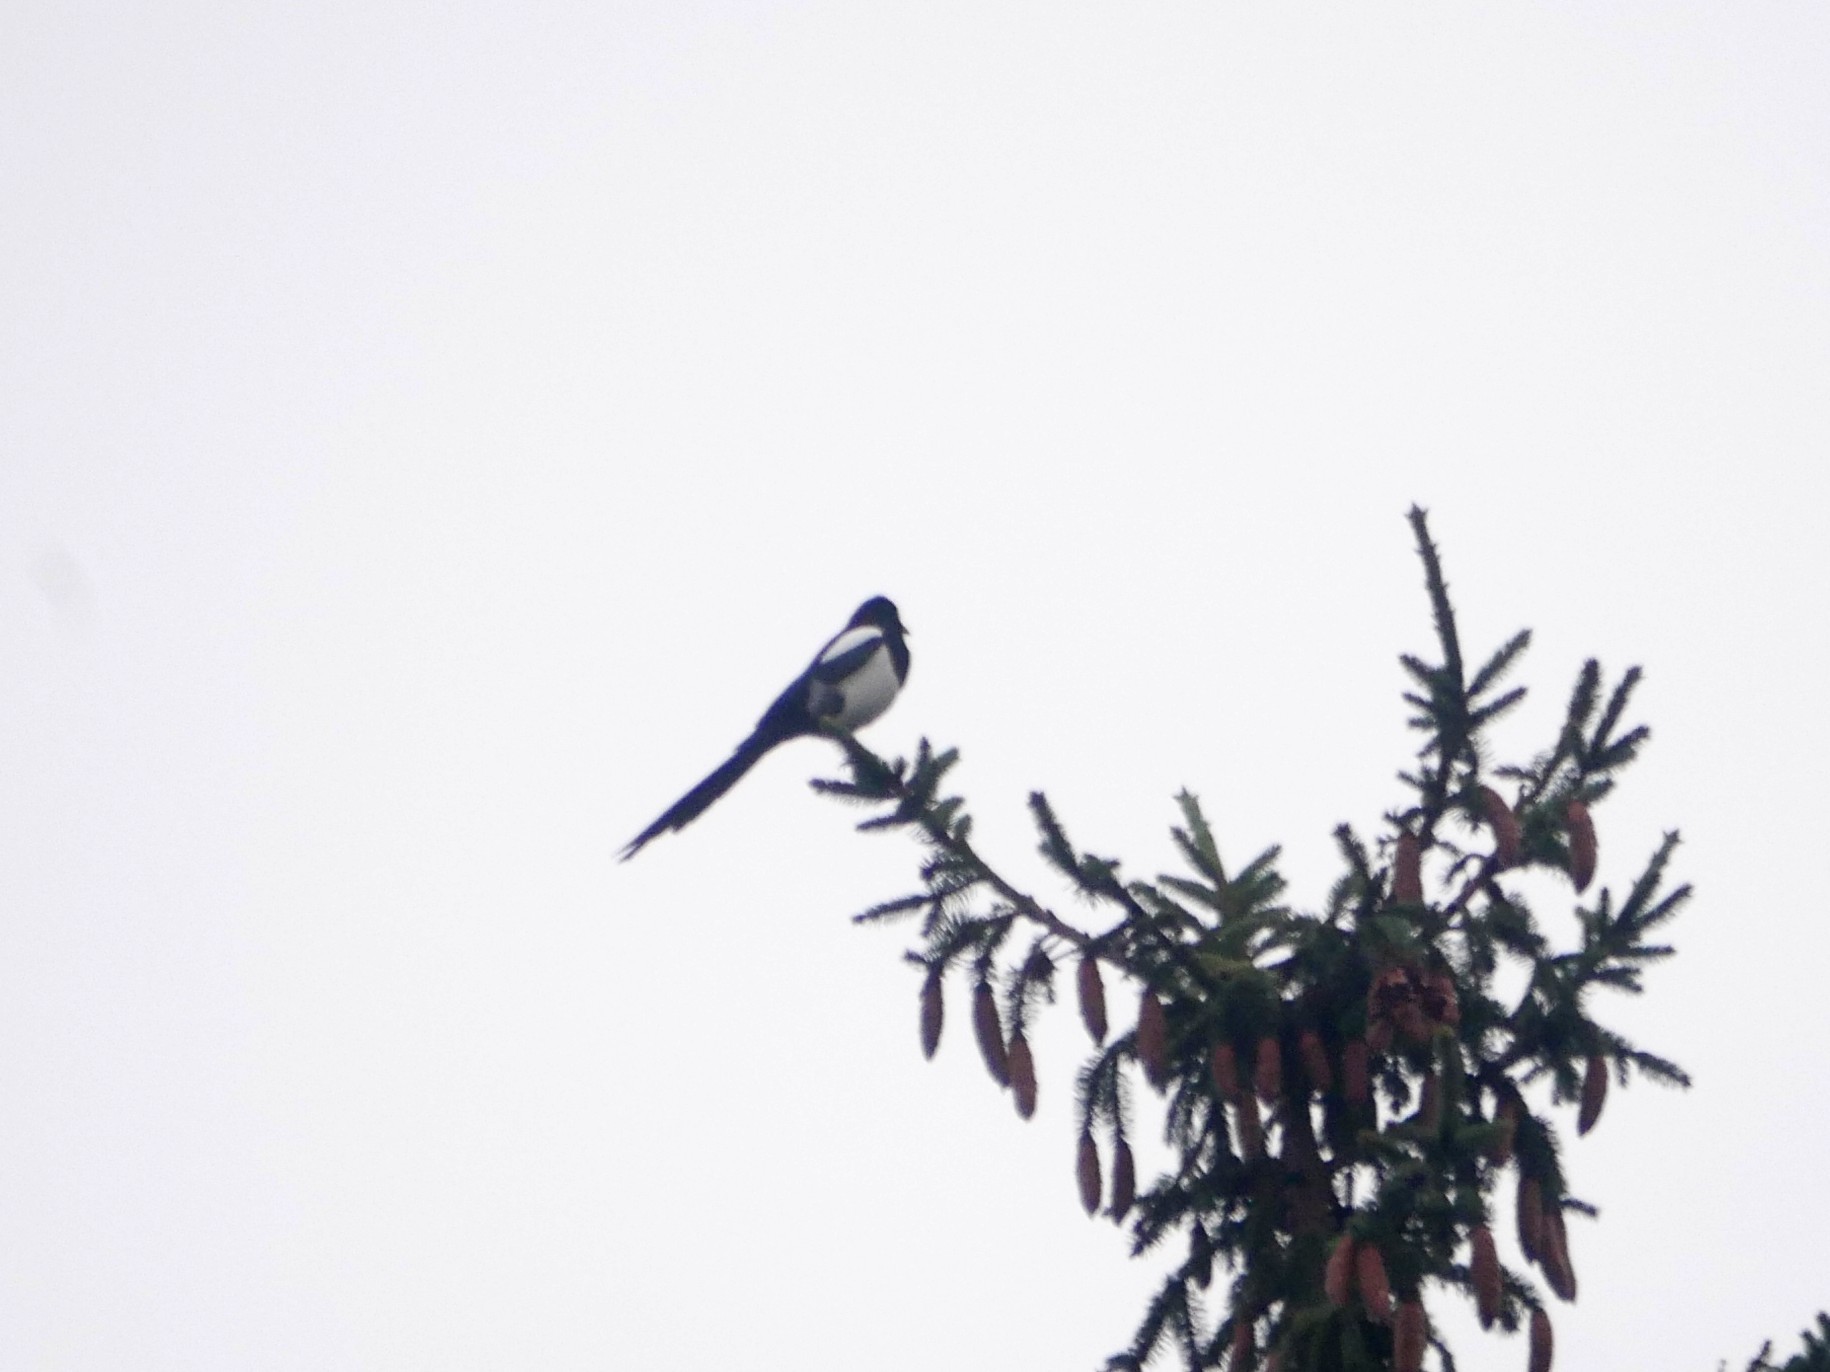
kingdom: Animalia
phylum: Chordata
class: Aves
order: Passeriformes
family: Corvidae
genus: Pica
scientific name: Pica pica
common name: Eurasian magpie
